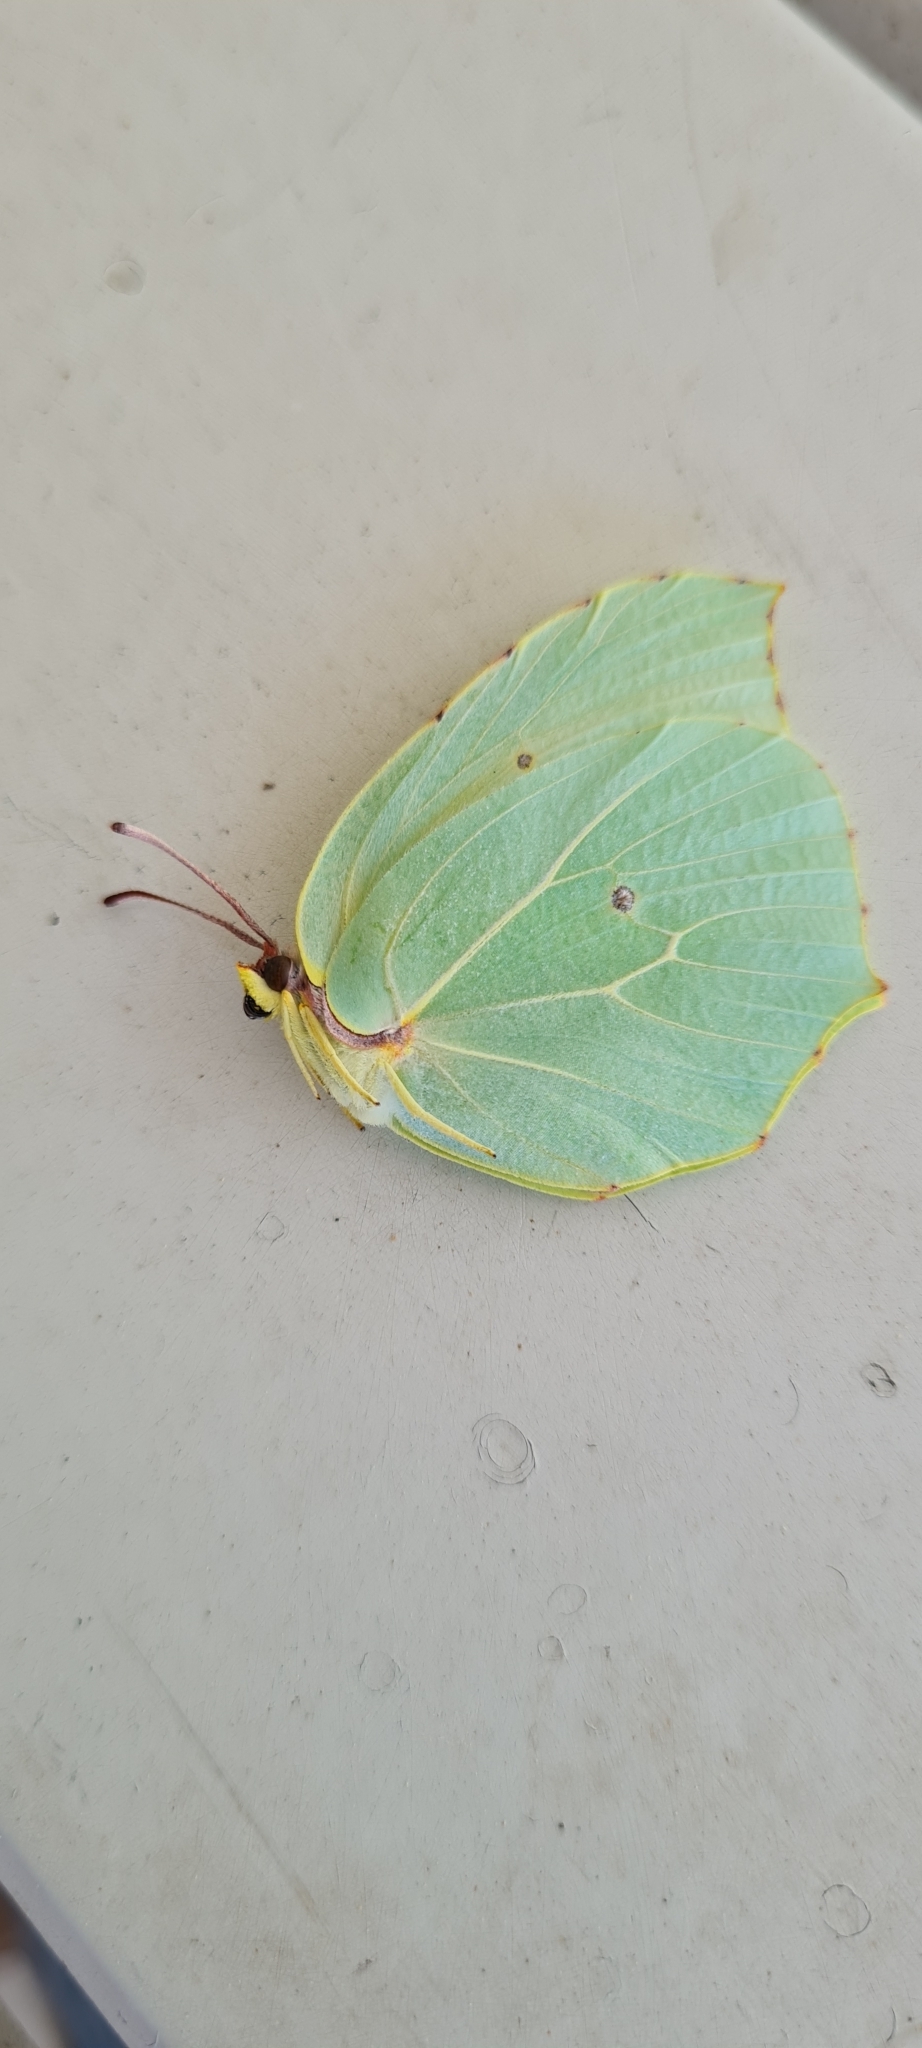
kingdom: Animalia
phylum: Arthropoda
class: Insecta
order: Lepidoptera
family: Pieridae
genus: Gonepteryx
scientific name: Gonepteryx cleopatra
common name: Cleopatra
